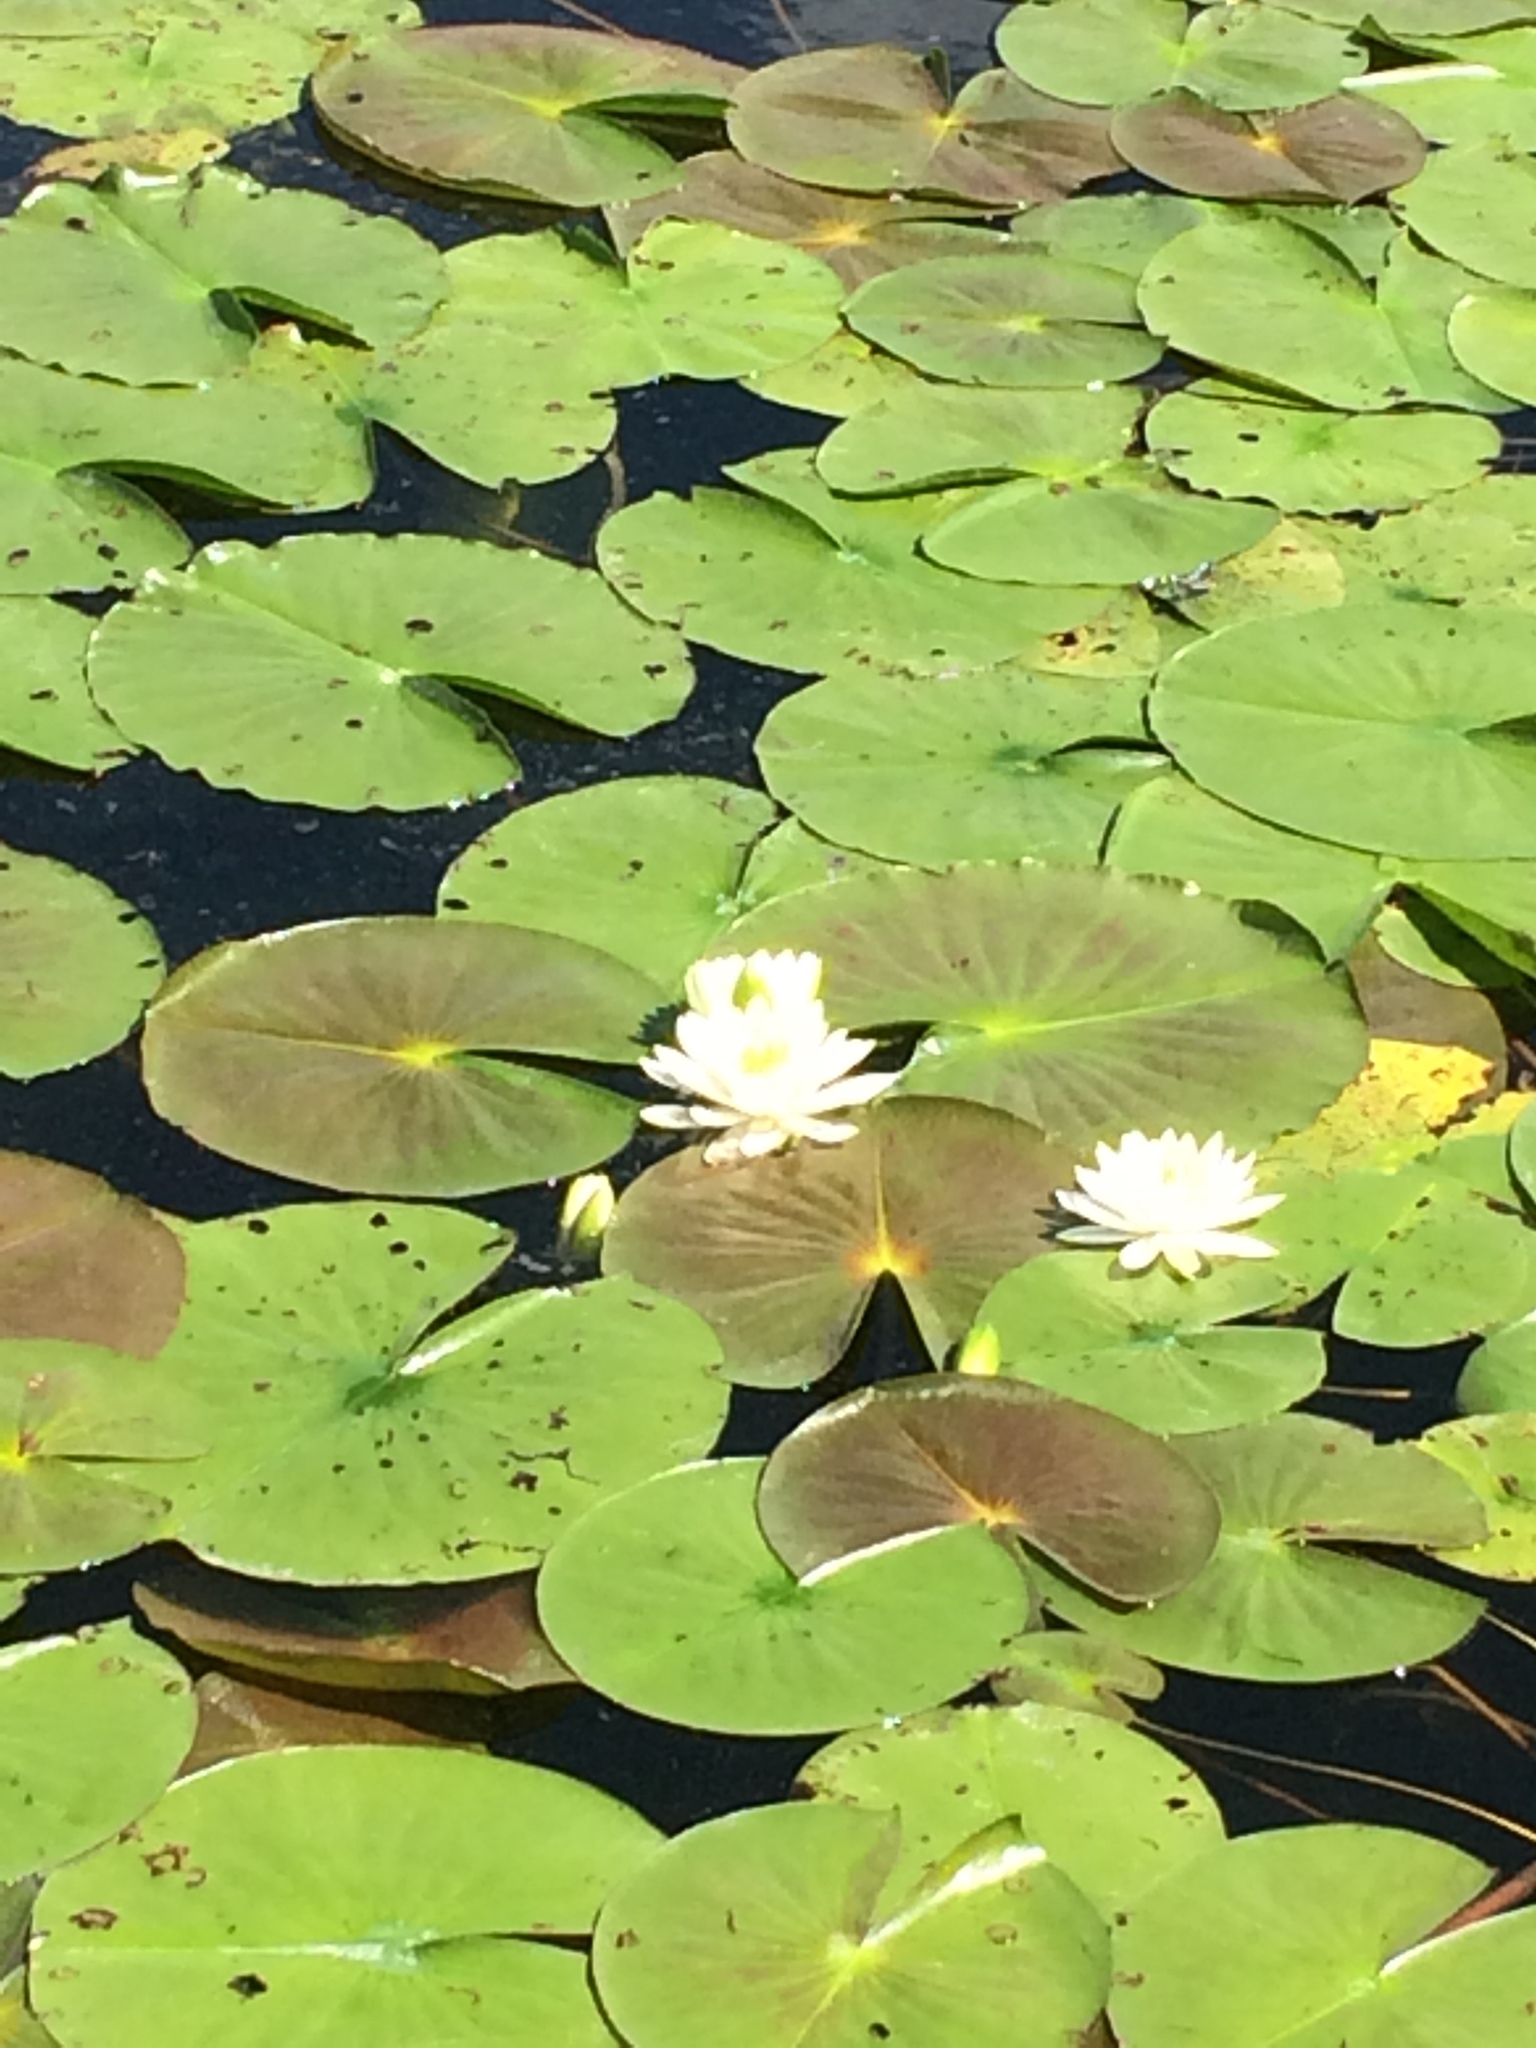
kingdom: Plantae
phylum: Tracheophyta
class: Magnoliopsida
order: Nymphaeales
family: Nymphaeaceae
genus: Nymphaea
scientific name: Nymphaea odorata
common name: Fragrant water-lily
